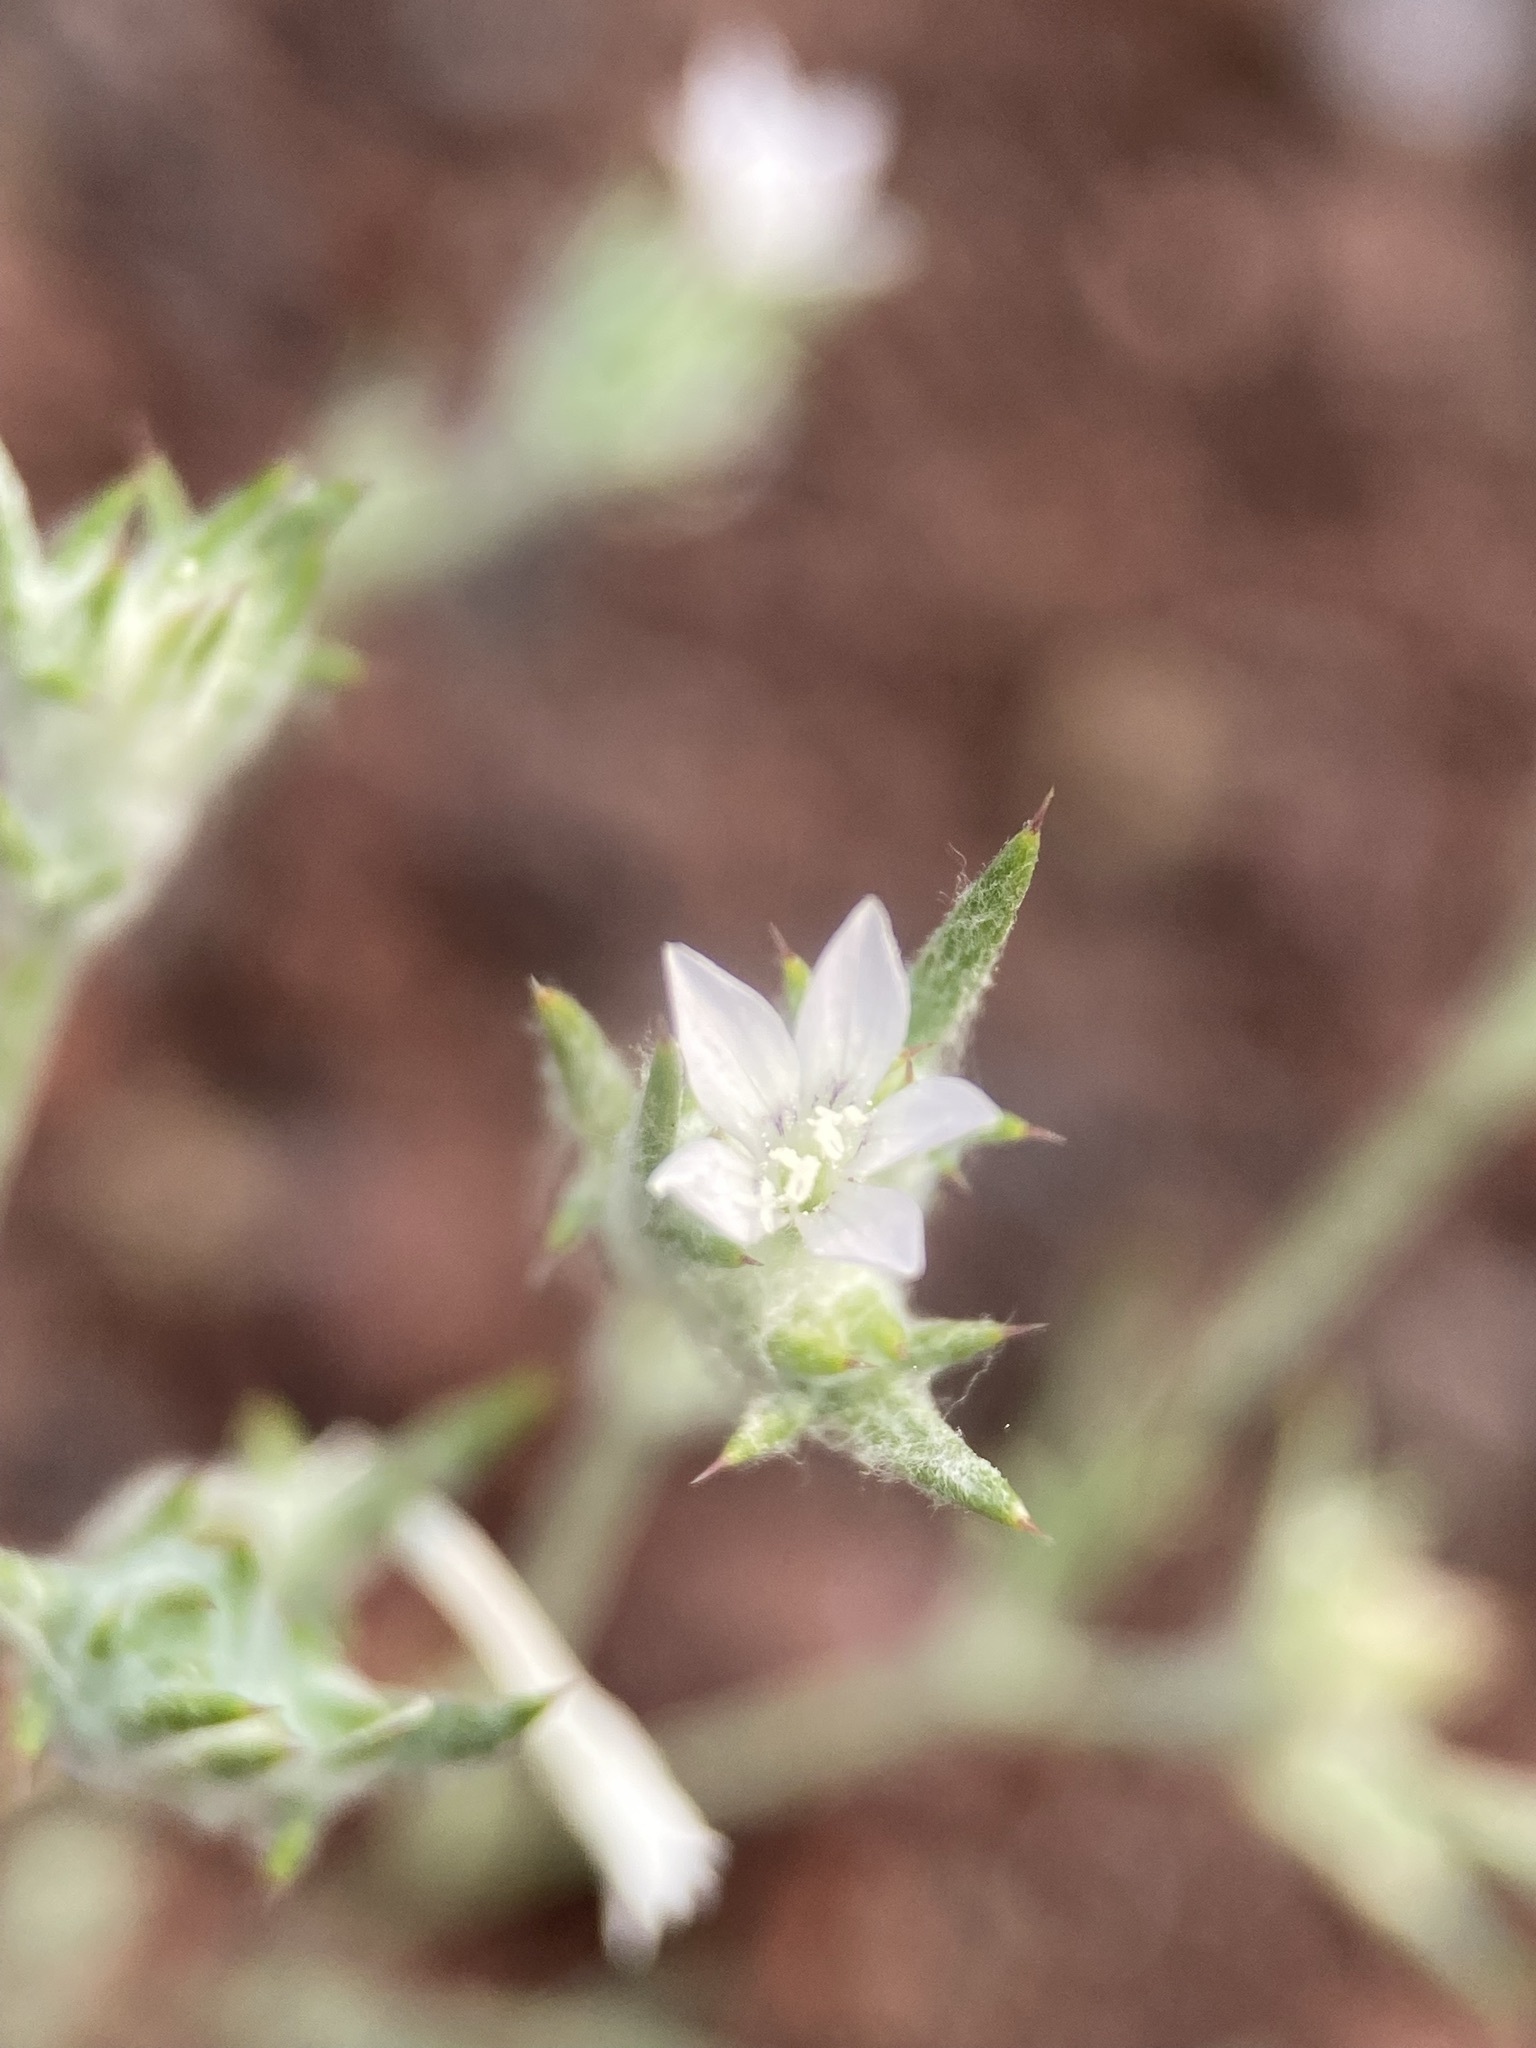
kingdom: Plantae
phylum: Tracheophyta
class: Magnoliopsida
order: Ericales
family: Polemoniaceae
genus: Eriastrum
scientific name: Eriastrum wilcoxii
